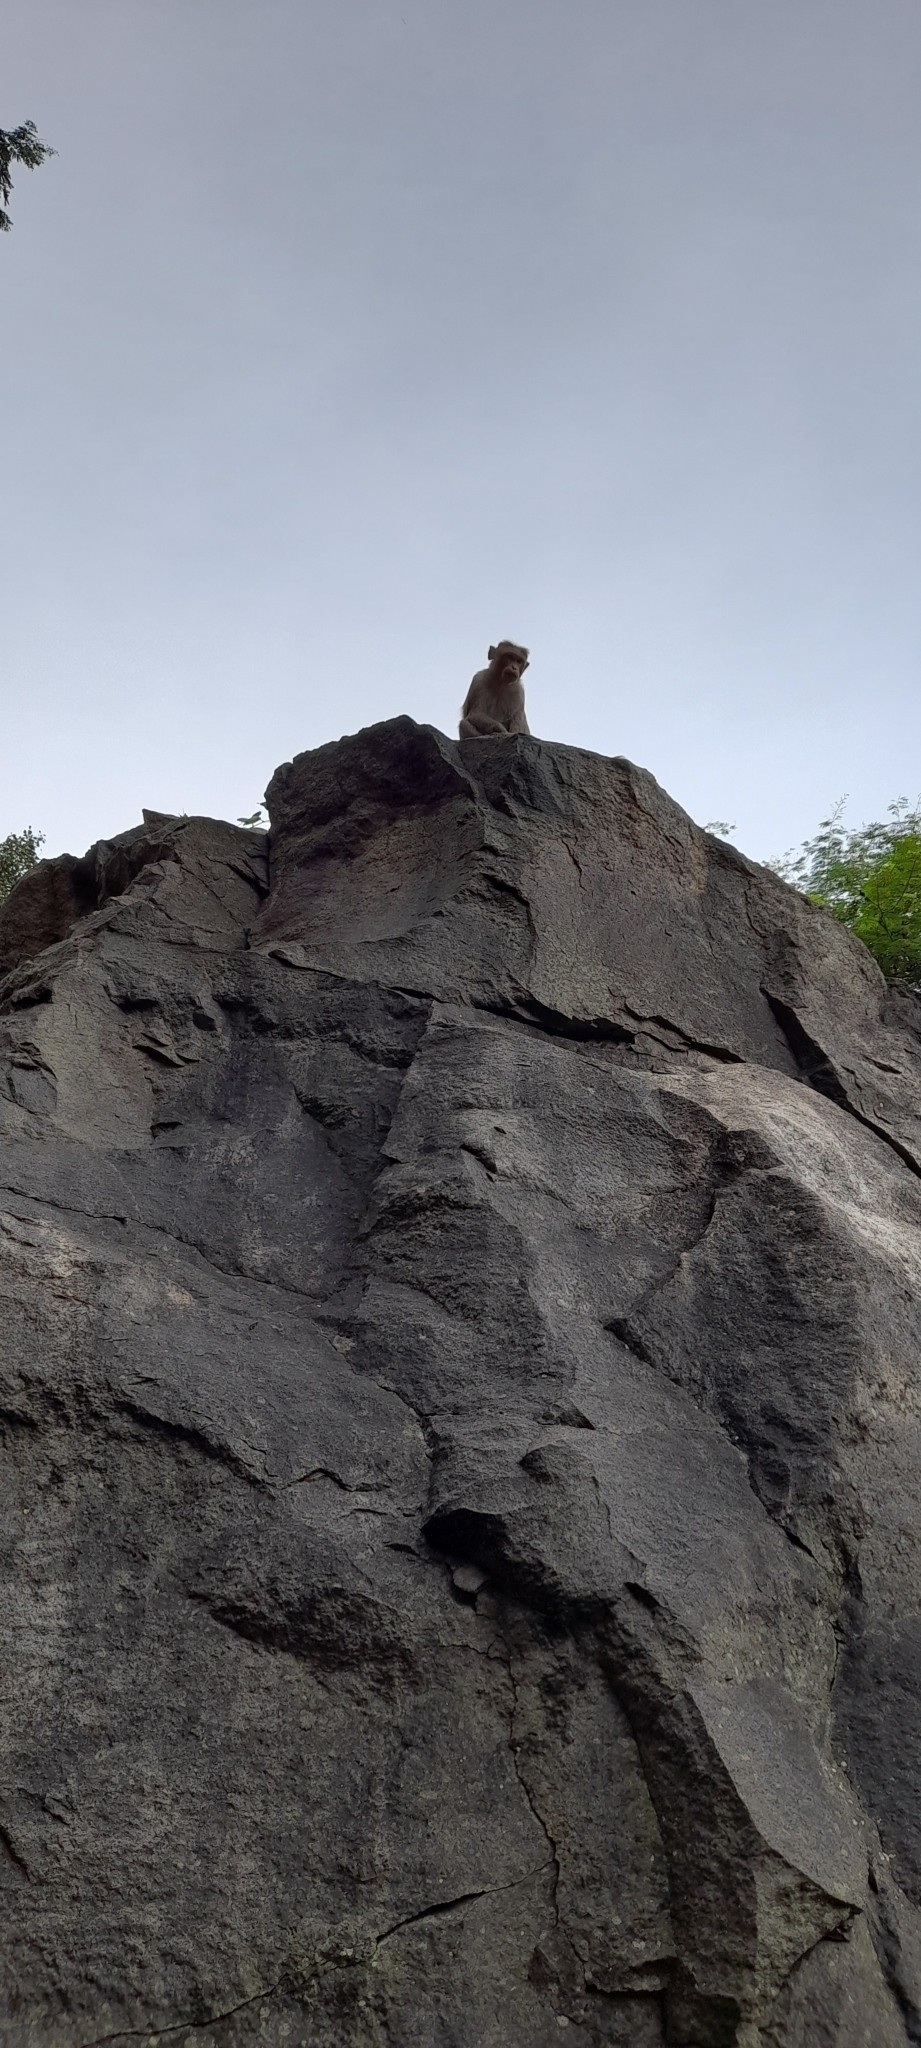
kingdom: Animalia
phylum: Chordata
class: Mammalia
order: Primates
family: Cercopithecidae
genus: Macaca
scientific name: Macaca radiata
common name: Bonnet macaque
